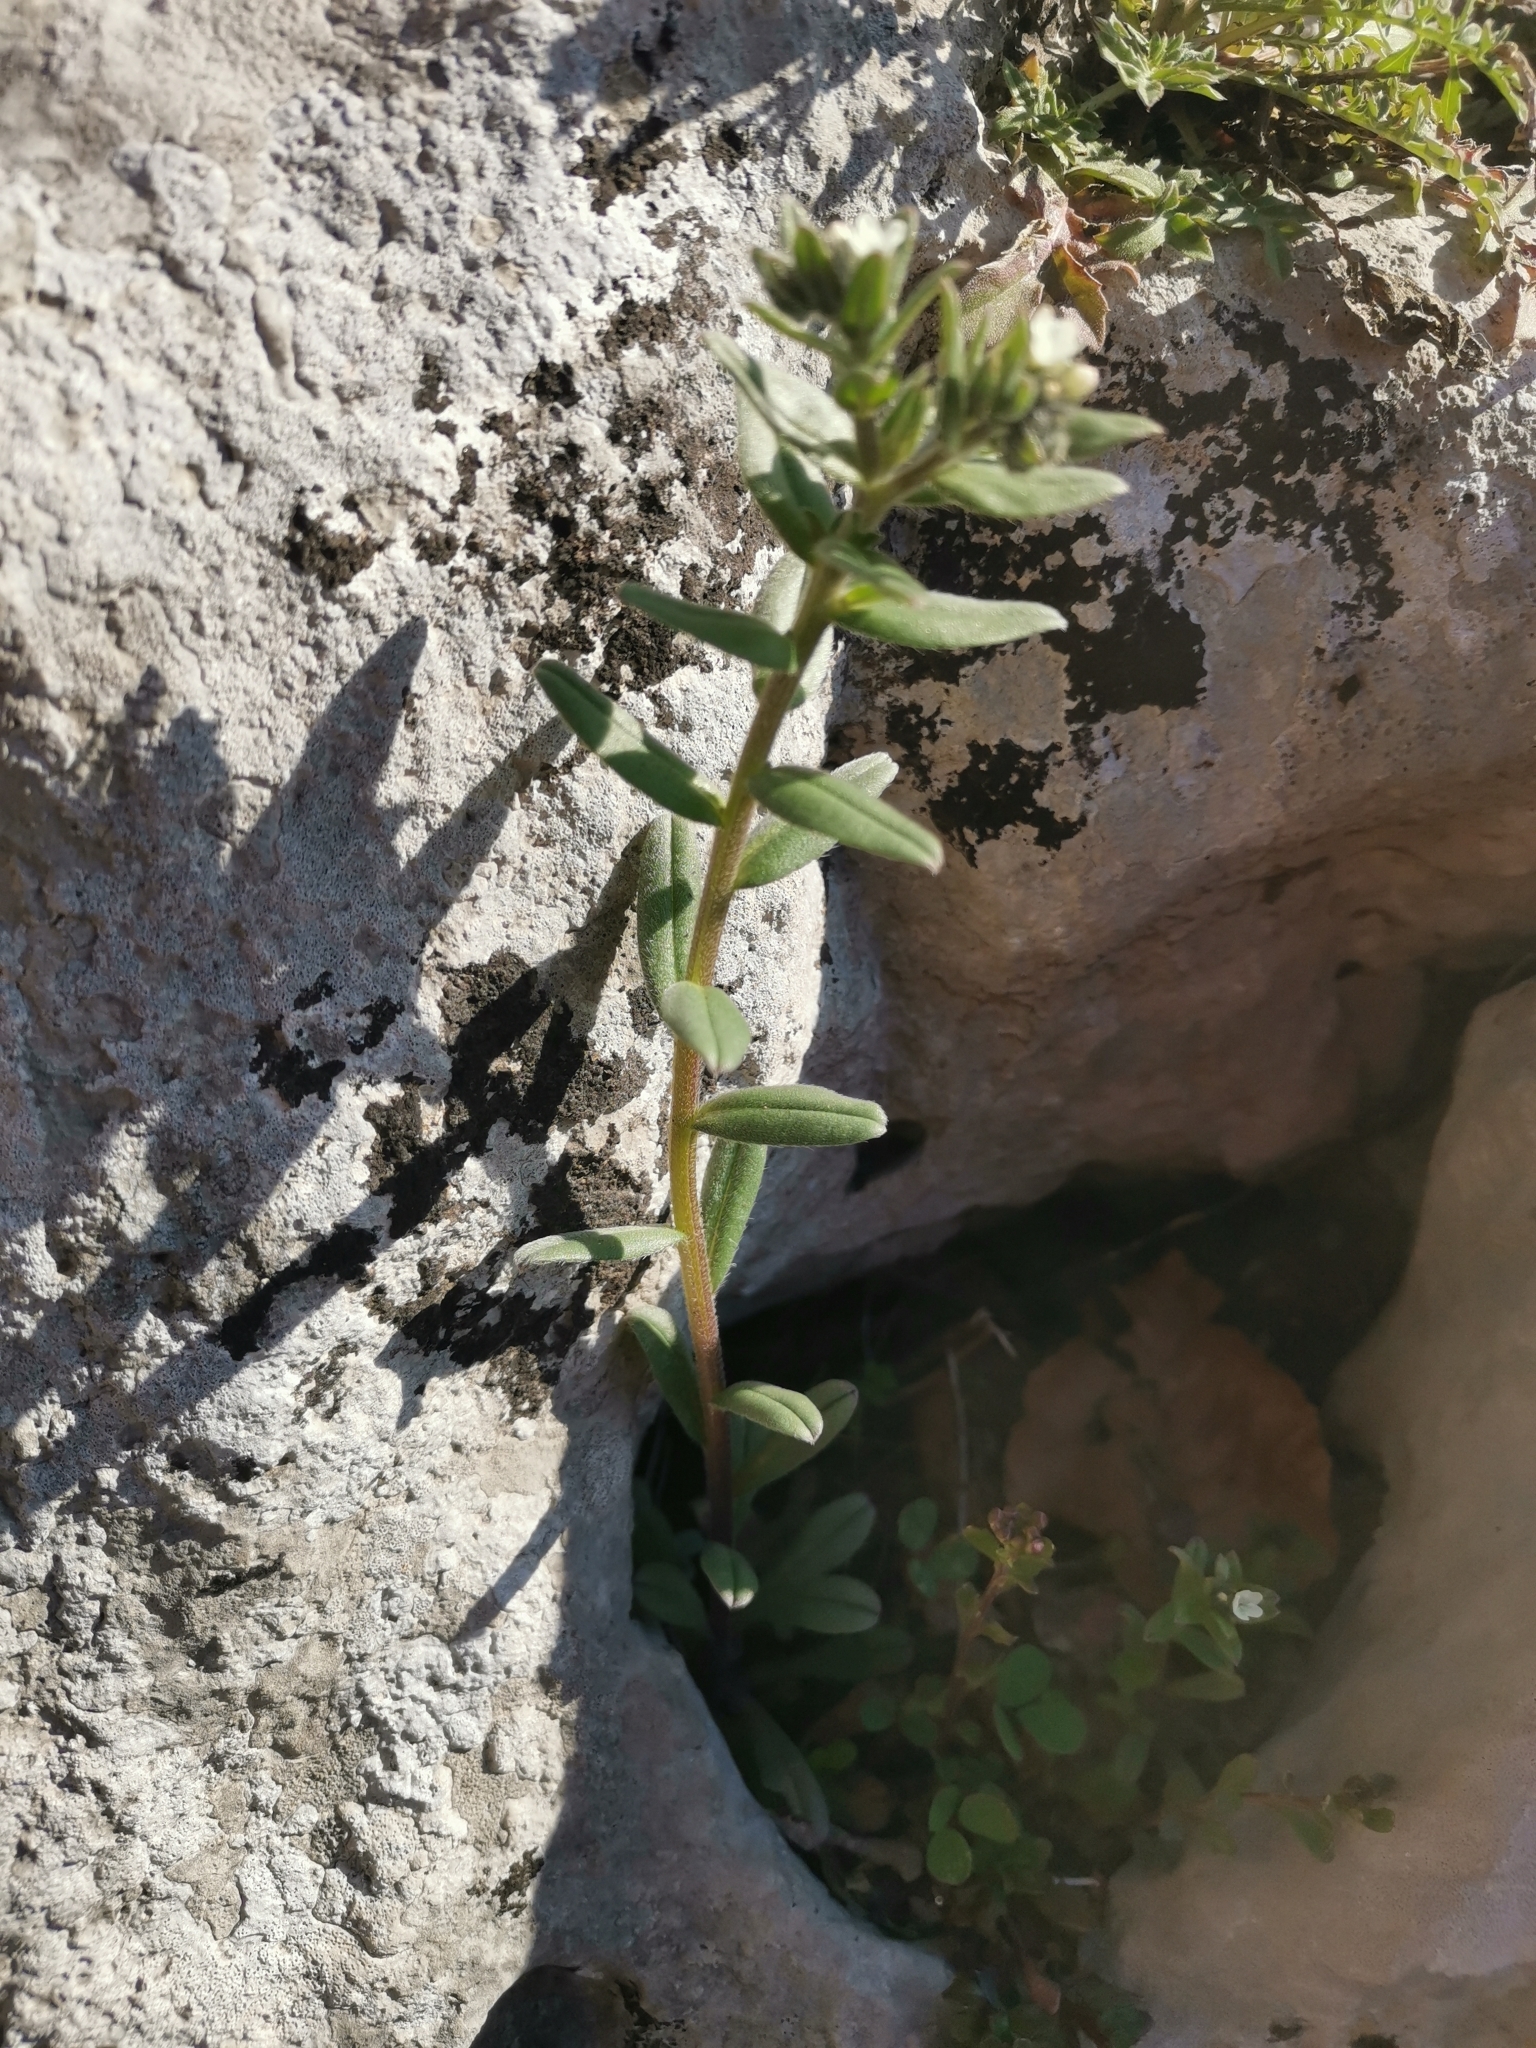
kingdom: Plantae
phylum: Tracheophyta
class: Magnoliopsida
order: Boraginales
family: Boraginaceae
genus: Buglossoides
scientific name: Buglossoides arvensis
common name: Corn gromwell
